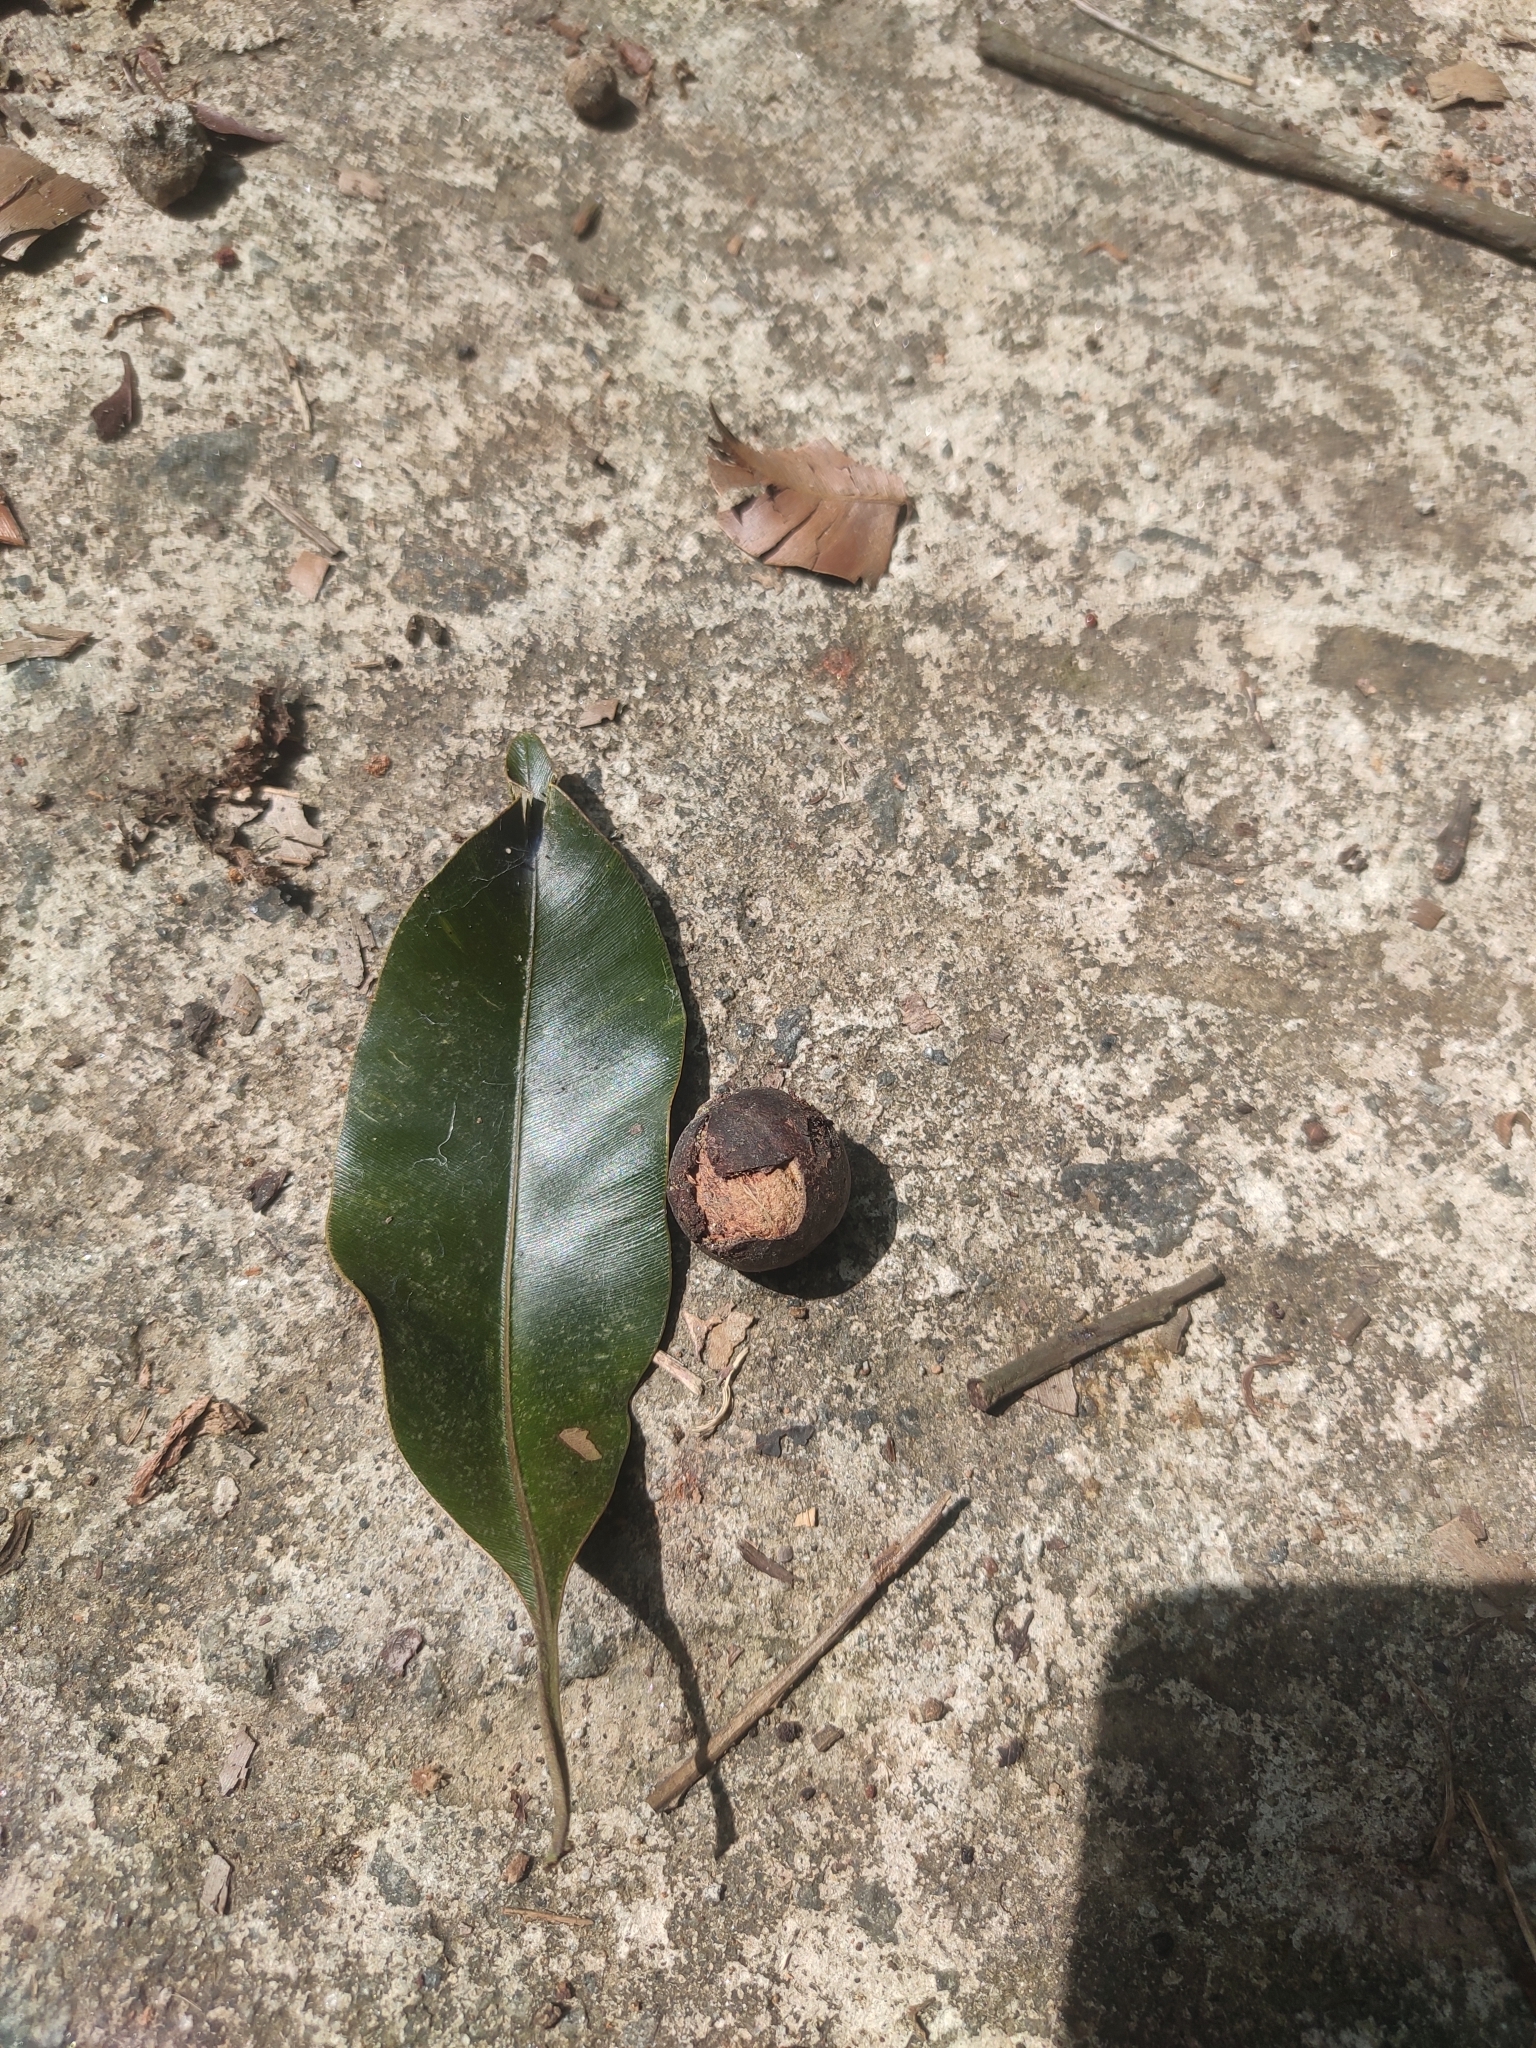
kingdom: Plantae
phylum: Tracheophyta
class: Magnoliopsida
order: Malpighiales
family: Calophyllaceae
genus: Calophyllum
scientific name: Calophyllum polyanthum
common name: Poonspar
